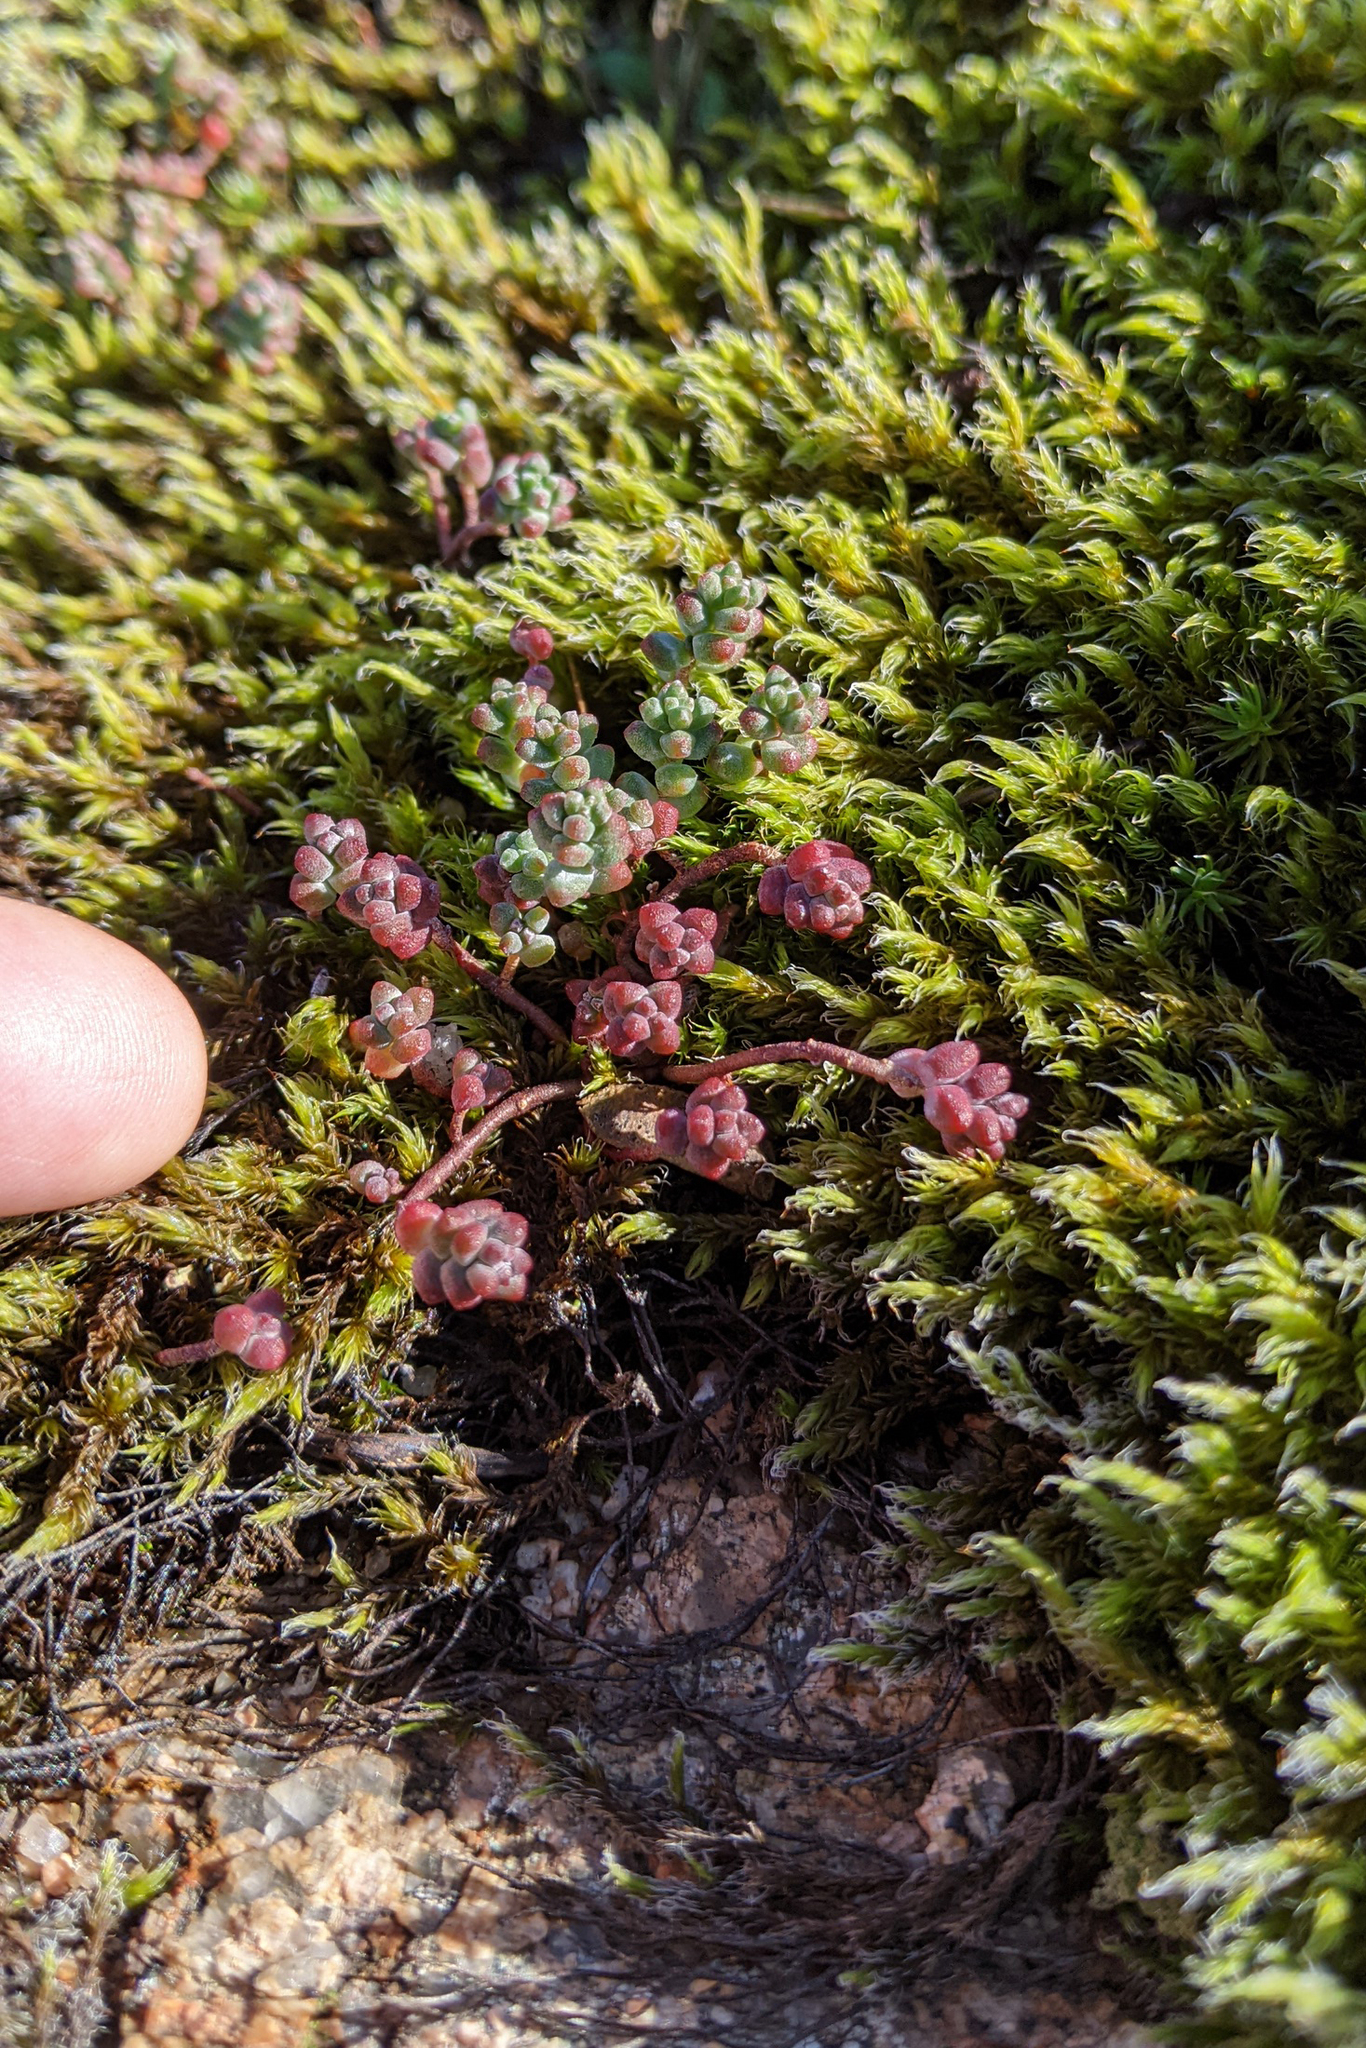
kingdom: Plantae
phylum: Tracheophyta
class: Magnoliopsida
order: Saxifragales
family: Crassulaceae
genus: Sedum
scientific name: Sedum brevifolium
